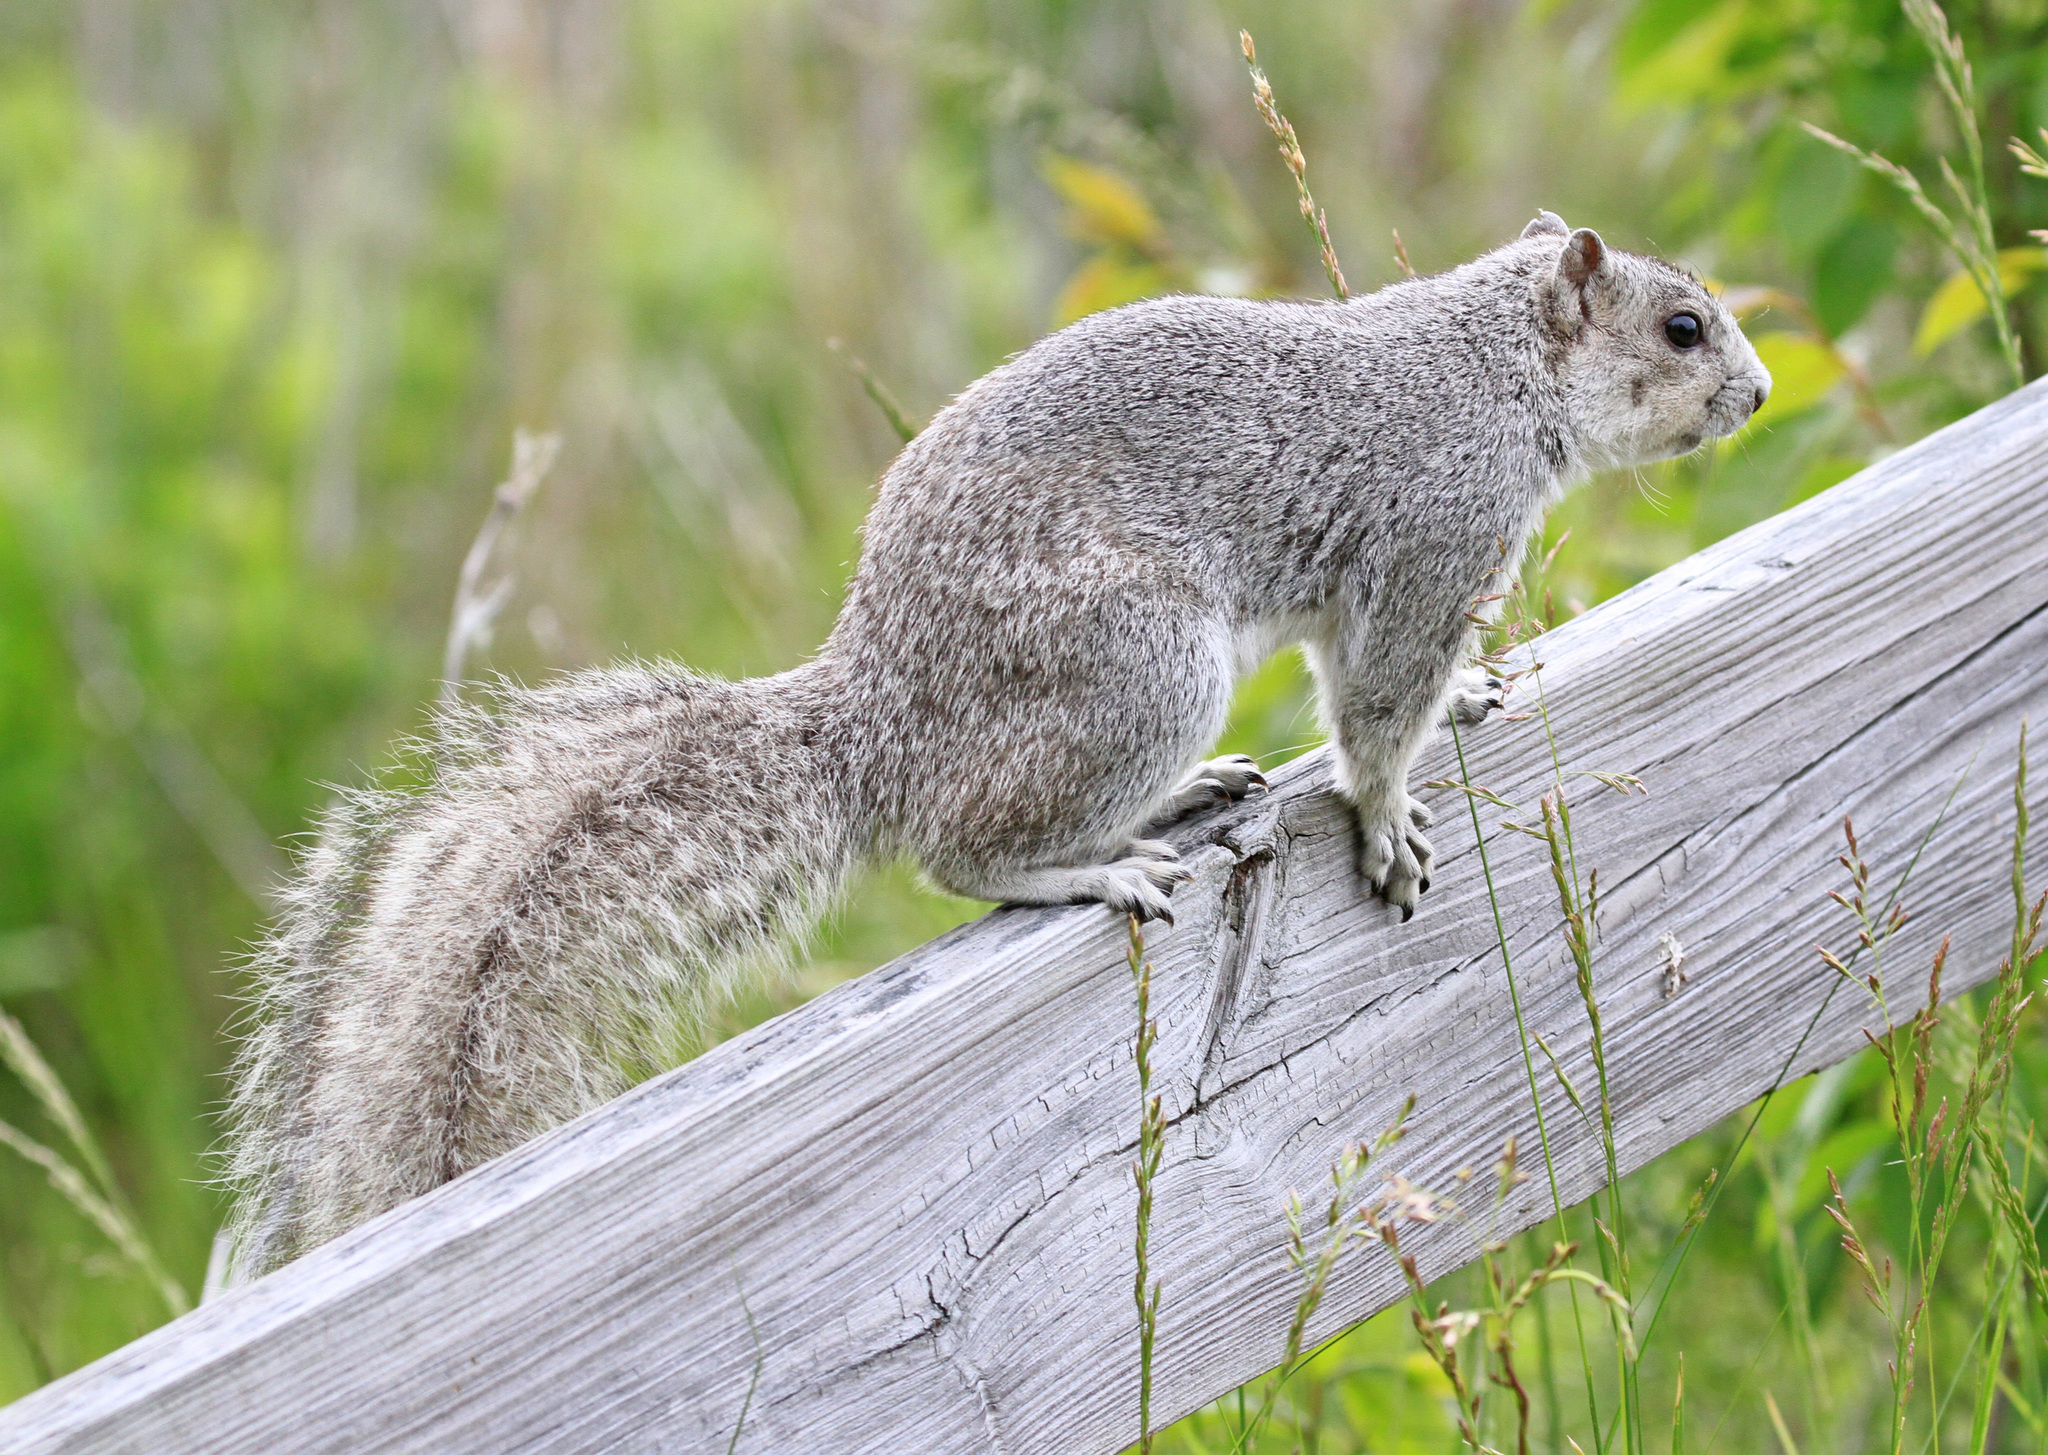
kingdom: Animalia
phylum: Chordata
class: Mammalia
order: Rodentia
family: Sciuridae
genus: Sciurus
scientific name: Sciurus niger
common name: Fox squirrel
